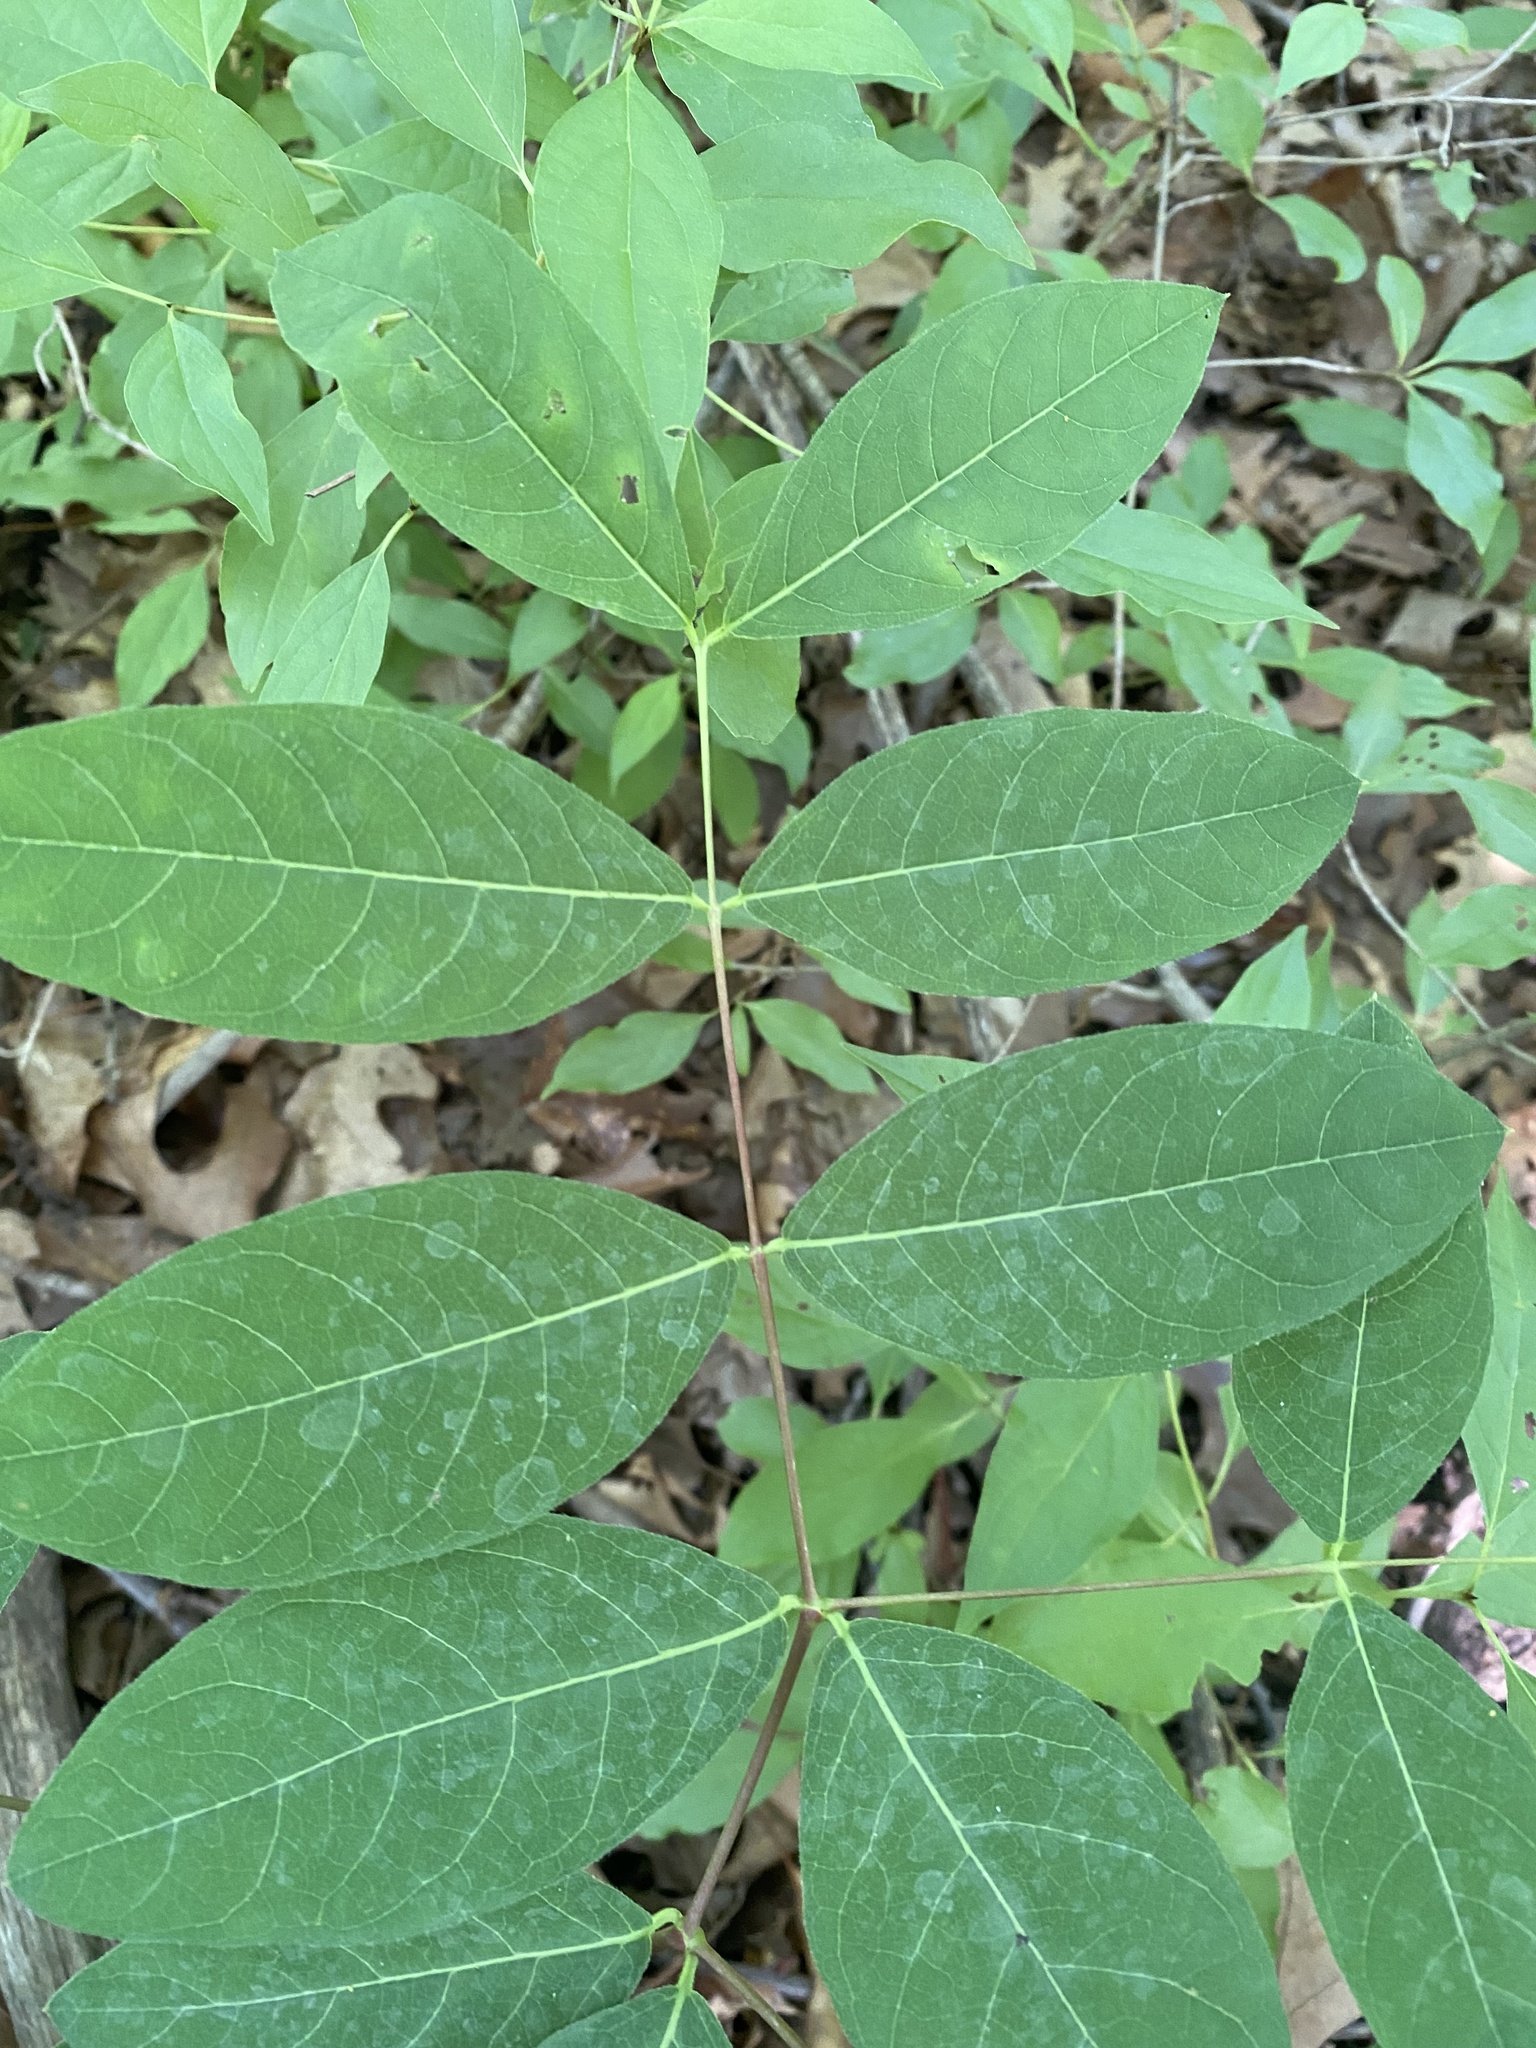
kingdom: Plantae
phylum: Tracheophyta
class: Magnoliopsida
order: Gentianales
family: Apocynaceae
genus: Apocynum
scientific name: Apocynum androsaemifolium
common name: Spreading dogbane
